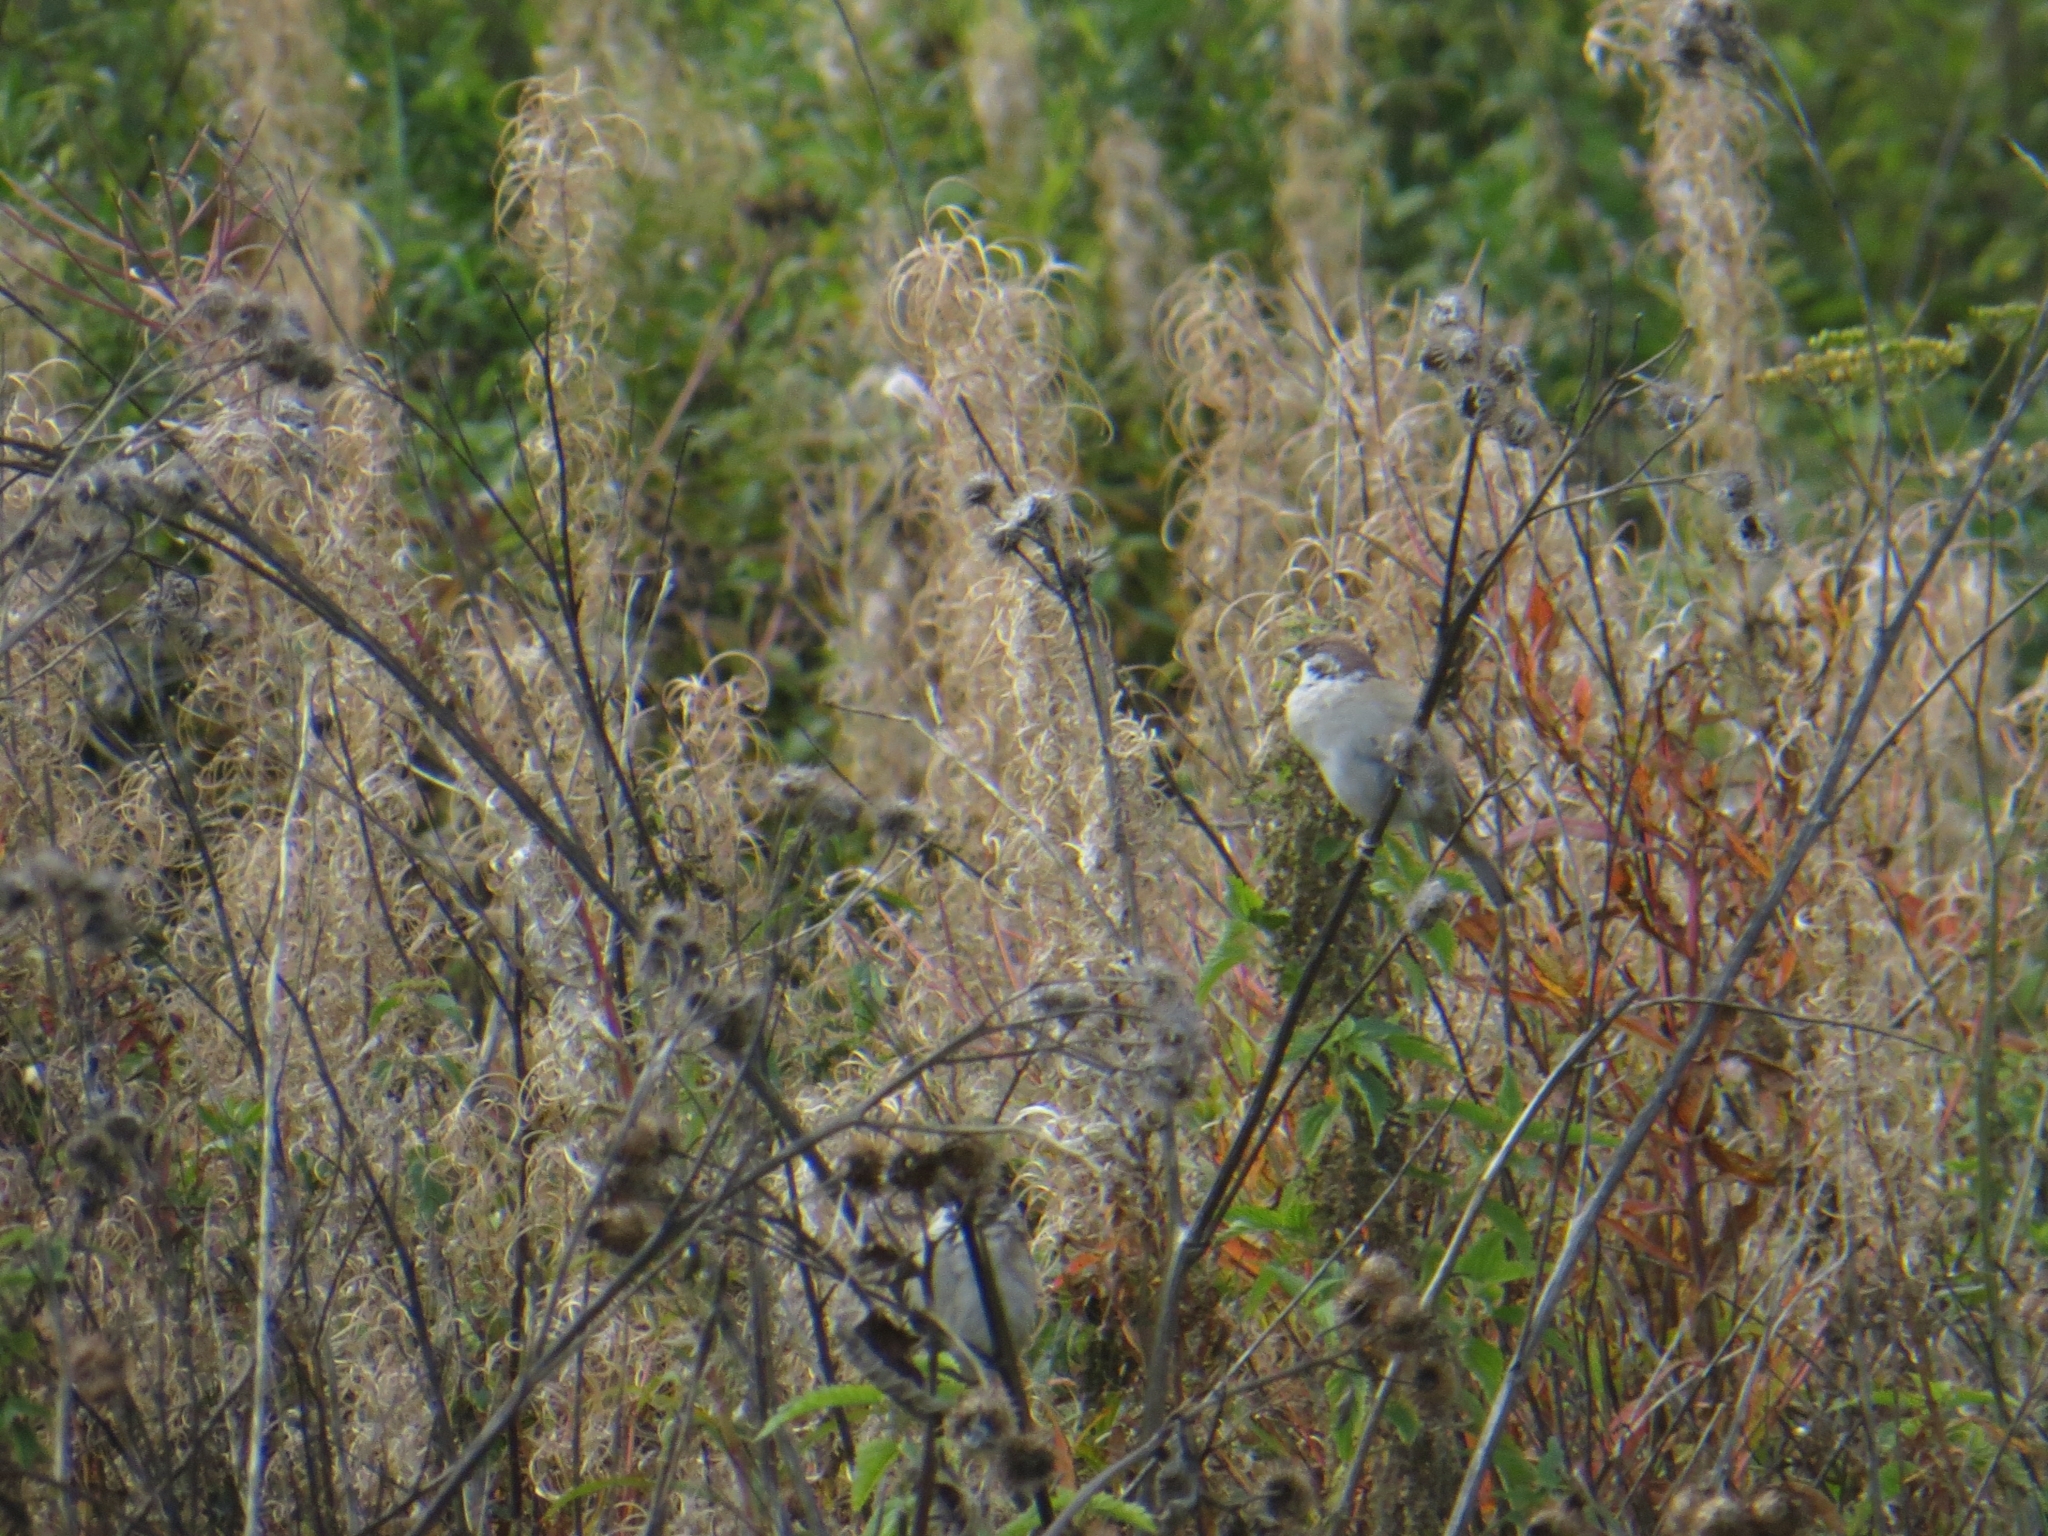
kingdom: Animalia
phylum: Chordata
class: Aves
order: Passeriformes
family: Passeridae
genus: Passer
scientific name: Passer montanus
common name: Eurasian tree sparrow
